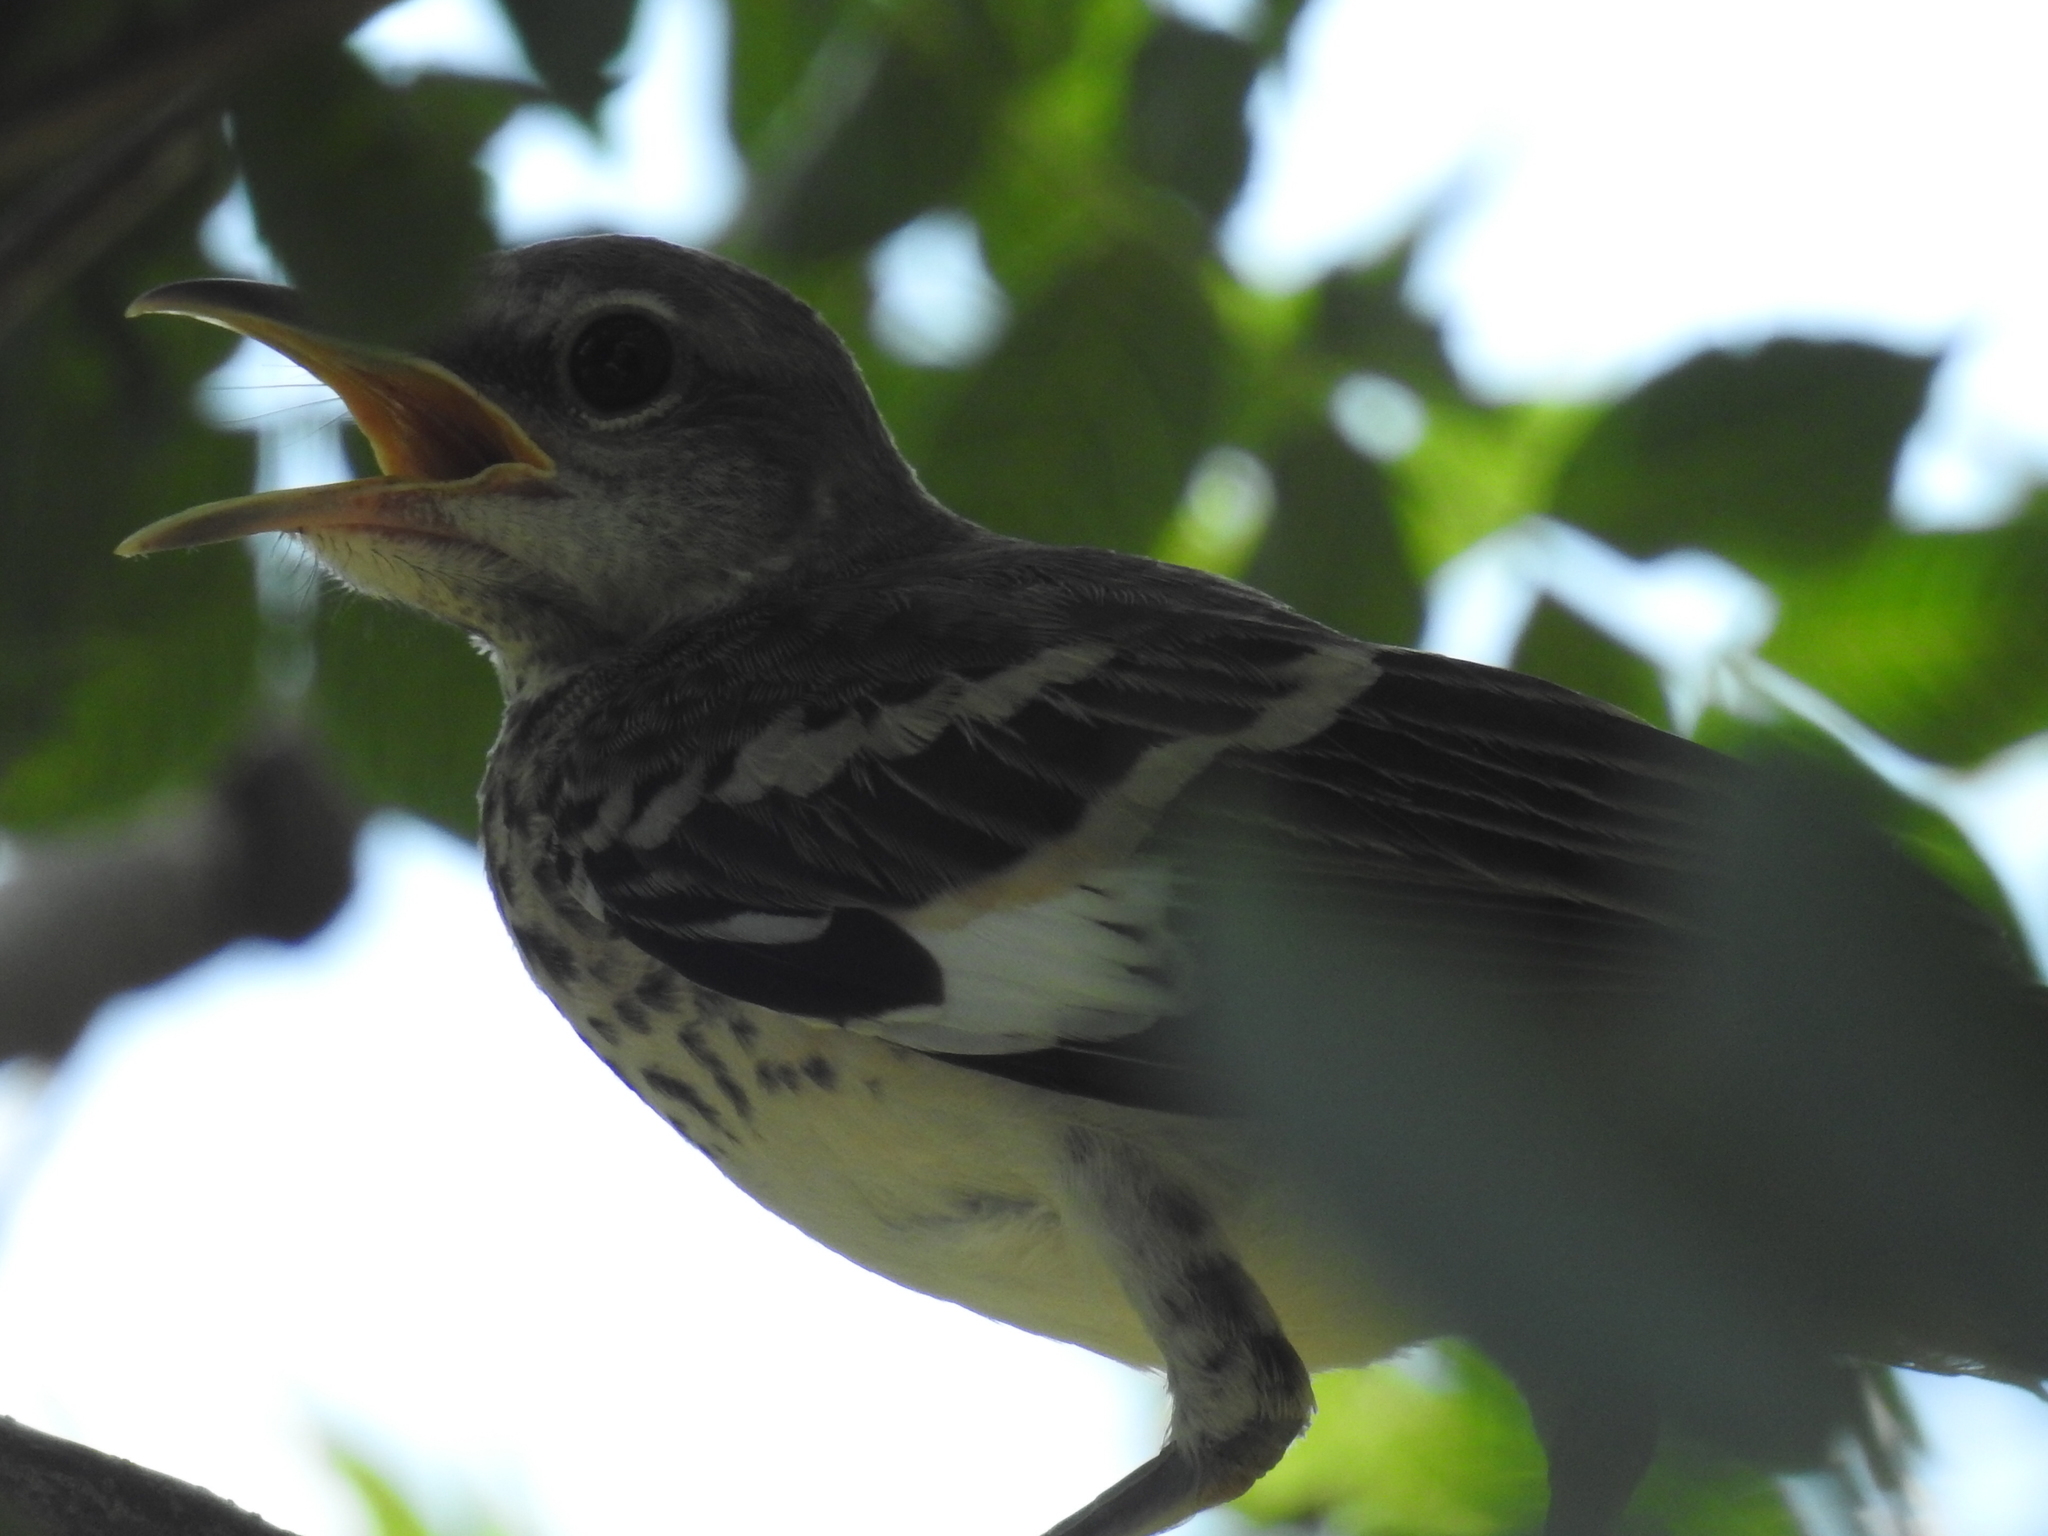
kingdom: Animalia
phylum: Chordata
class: Aves
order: Passeriformes
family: Mimidae
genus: Mimus
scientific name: Mimus polyglottos
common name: Northern mockingbird
